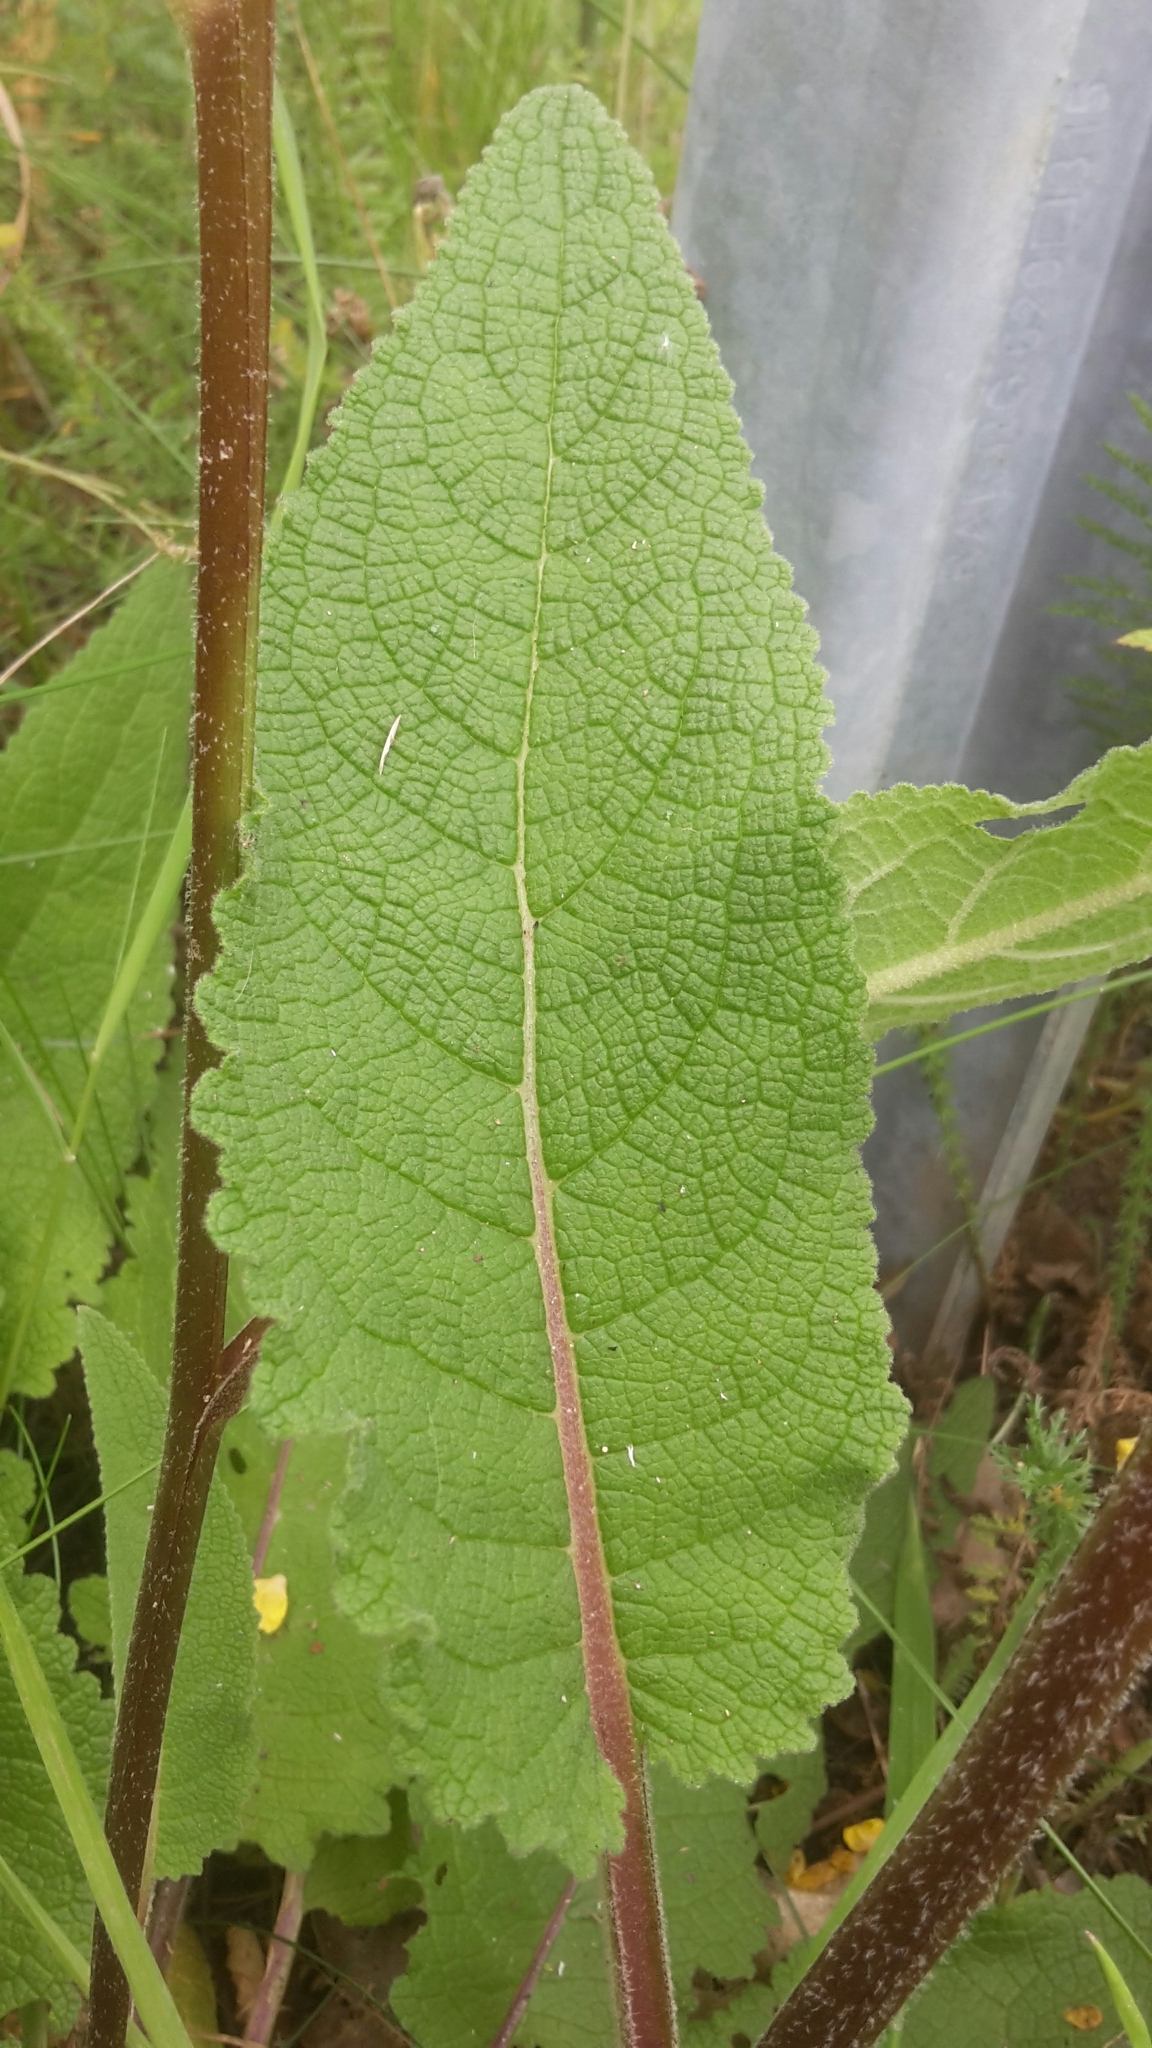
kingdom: Plantae
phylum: Tracheophyta
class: Magnoliopsida
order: Lamiales
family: Scrophulariaceae
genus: Verbascum
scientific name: Verbascum nigrum
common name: Dark mullein
